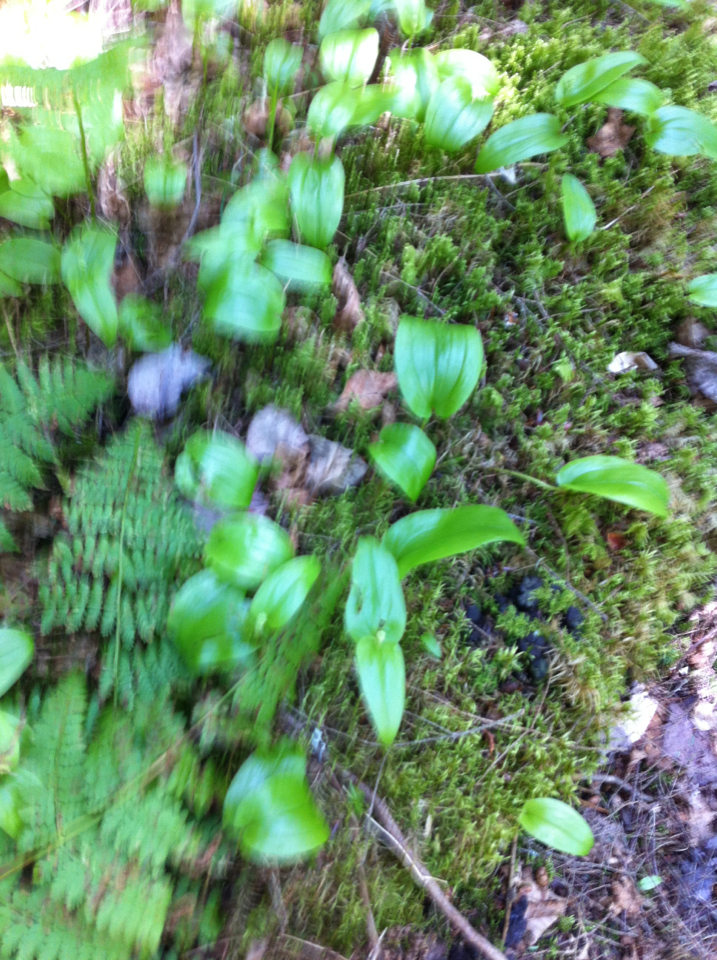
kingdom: Plantae
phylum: Tracheophyta
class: Liliopsida
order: Asparagales
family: Asparagaceae
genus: Maianthemum
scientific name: Maianthemum canadense
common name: False lily-of-the-valley
